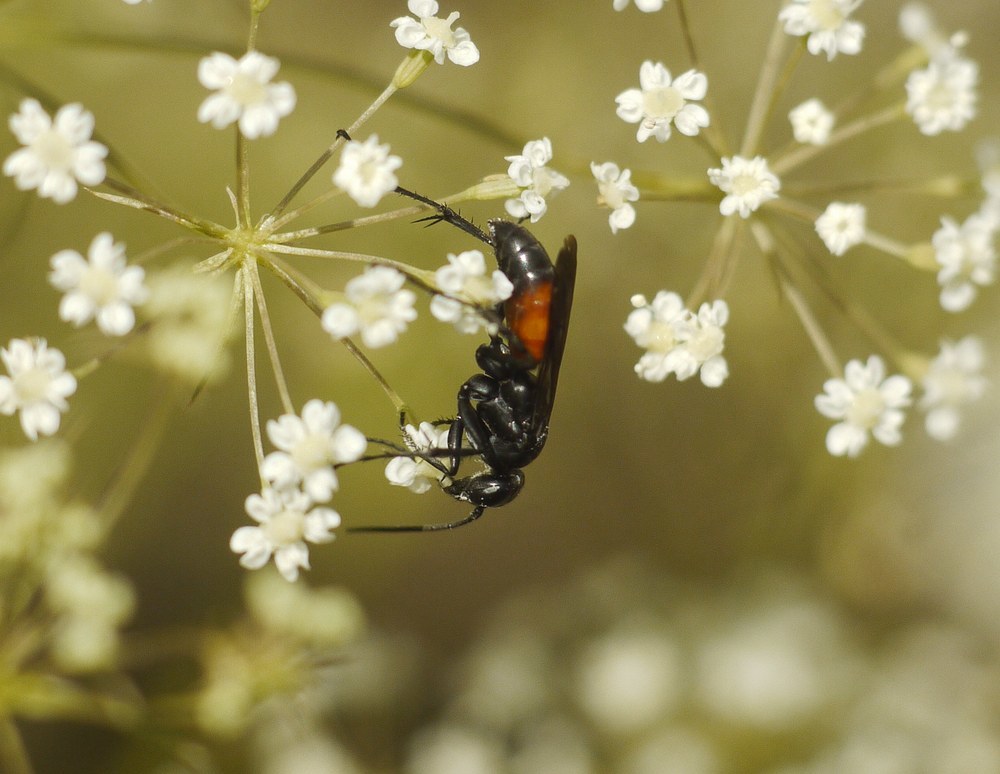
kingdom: Animalia
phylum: Arthropoda
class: Insecta
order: Hymenoptera
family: Pompilidae
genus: Anoplius
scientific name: Anoplius infuscatus
